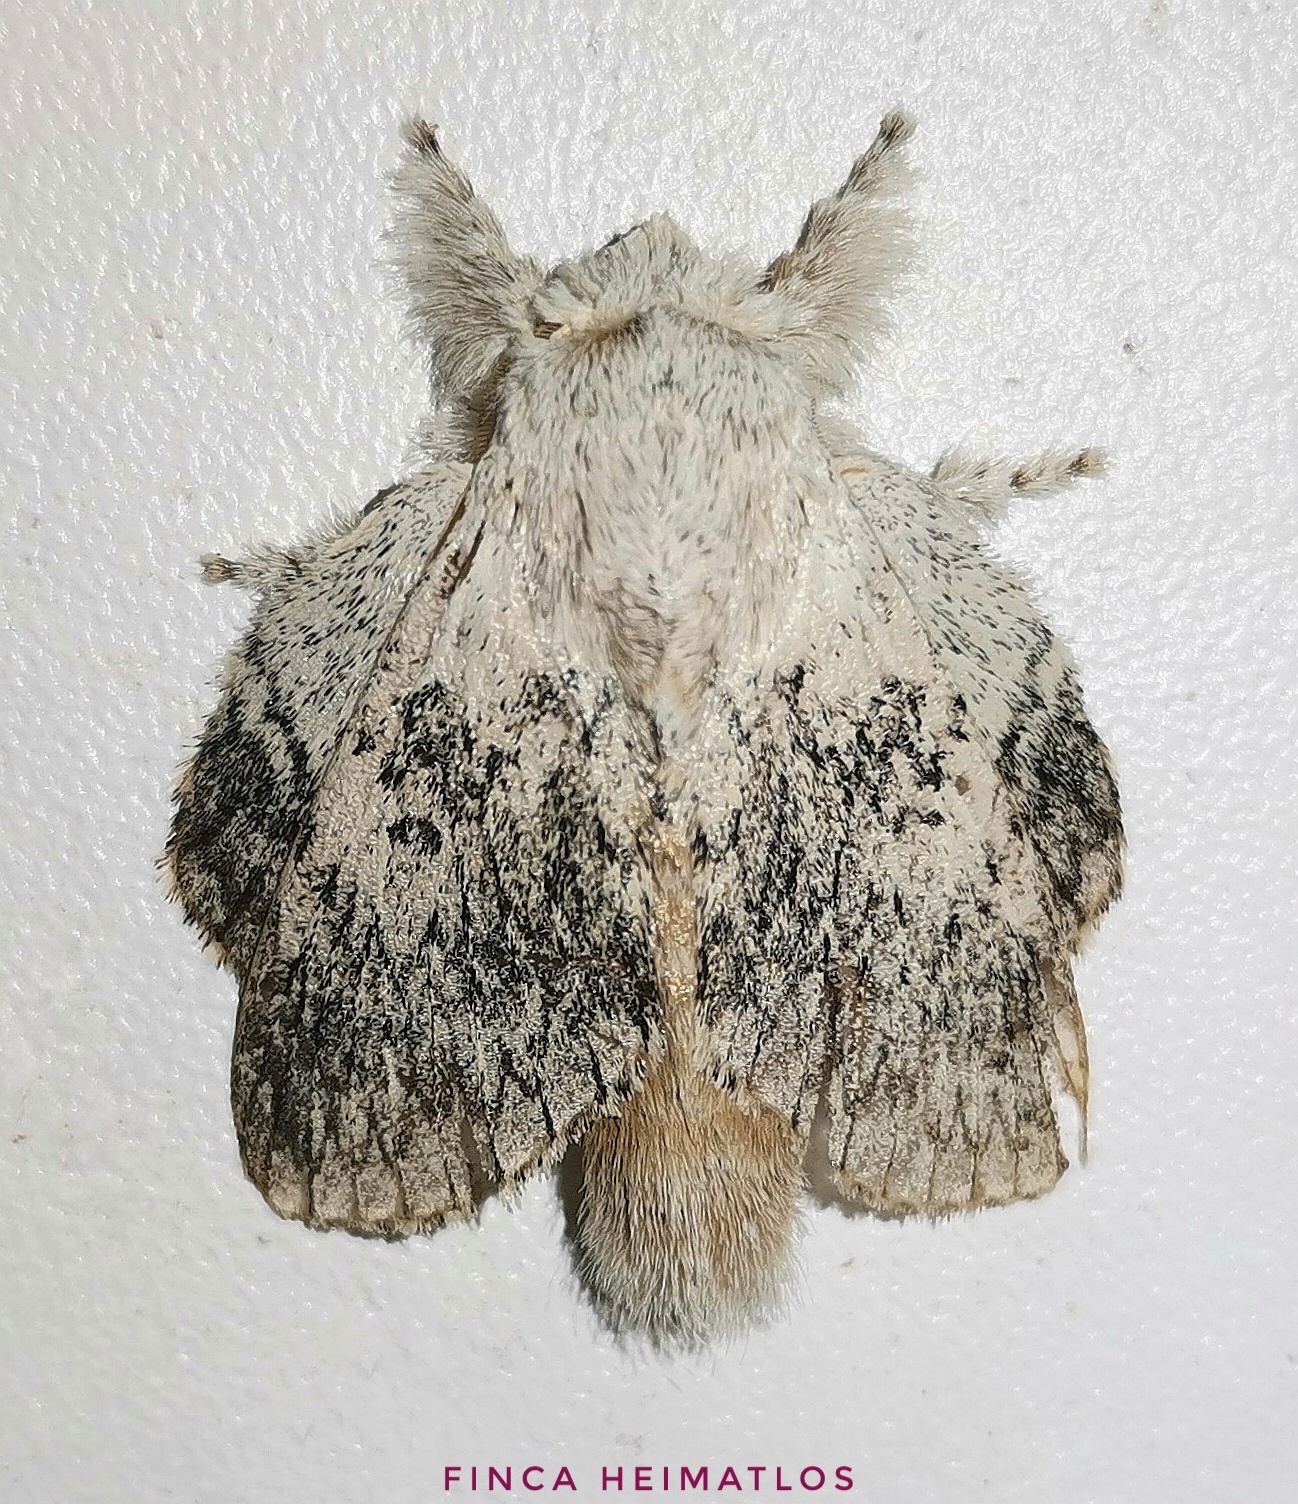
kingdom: Animalia
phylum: Arthropoda
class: Insecta
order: Lepidoptera
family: Lasiocampidae
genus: Euglyphis
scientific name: Euglyphis revincta
